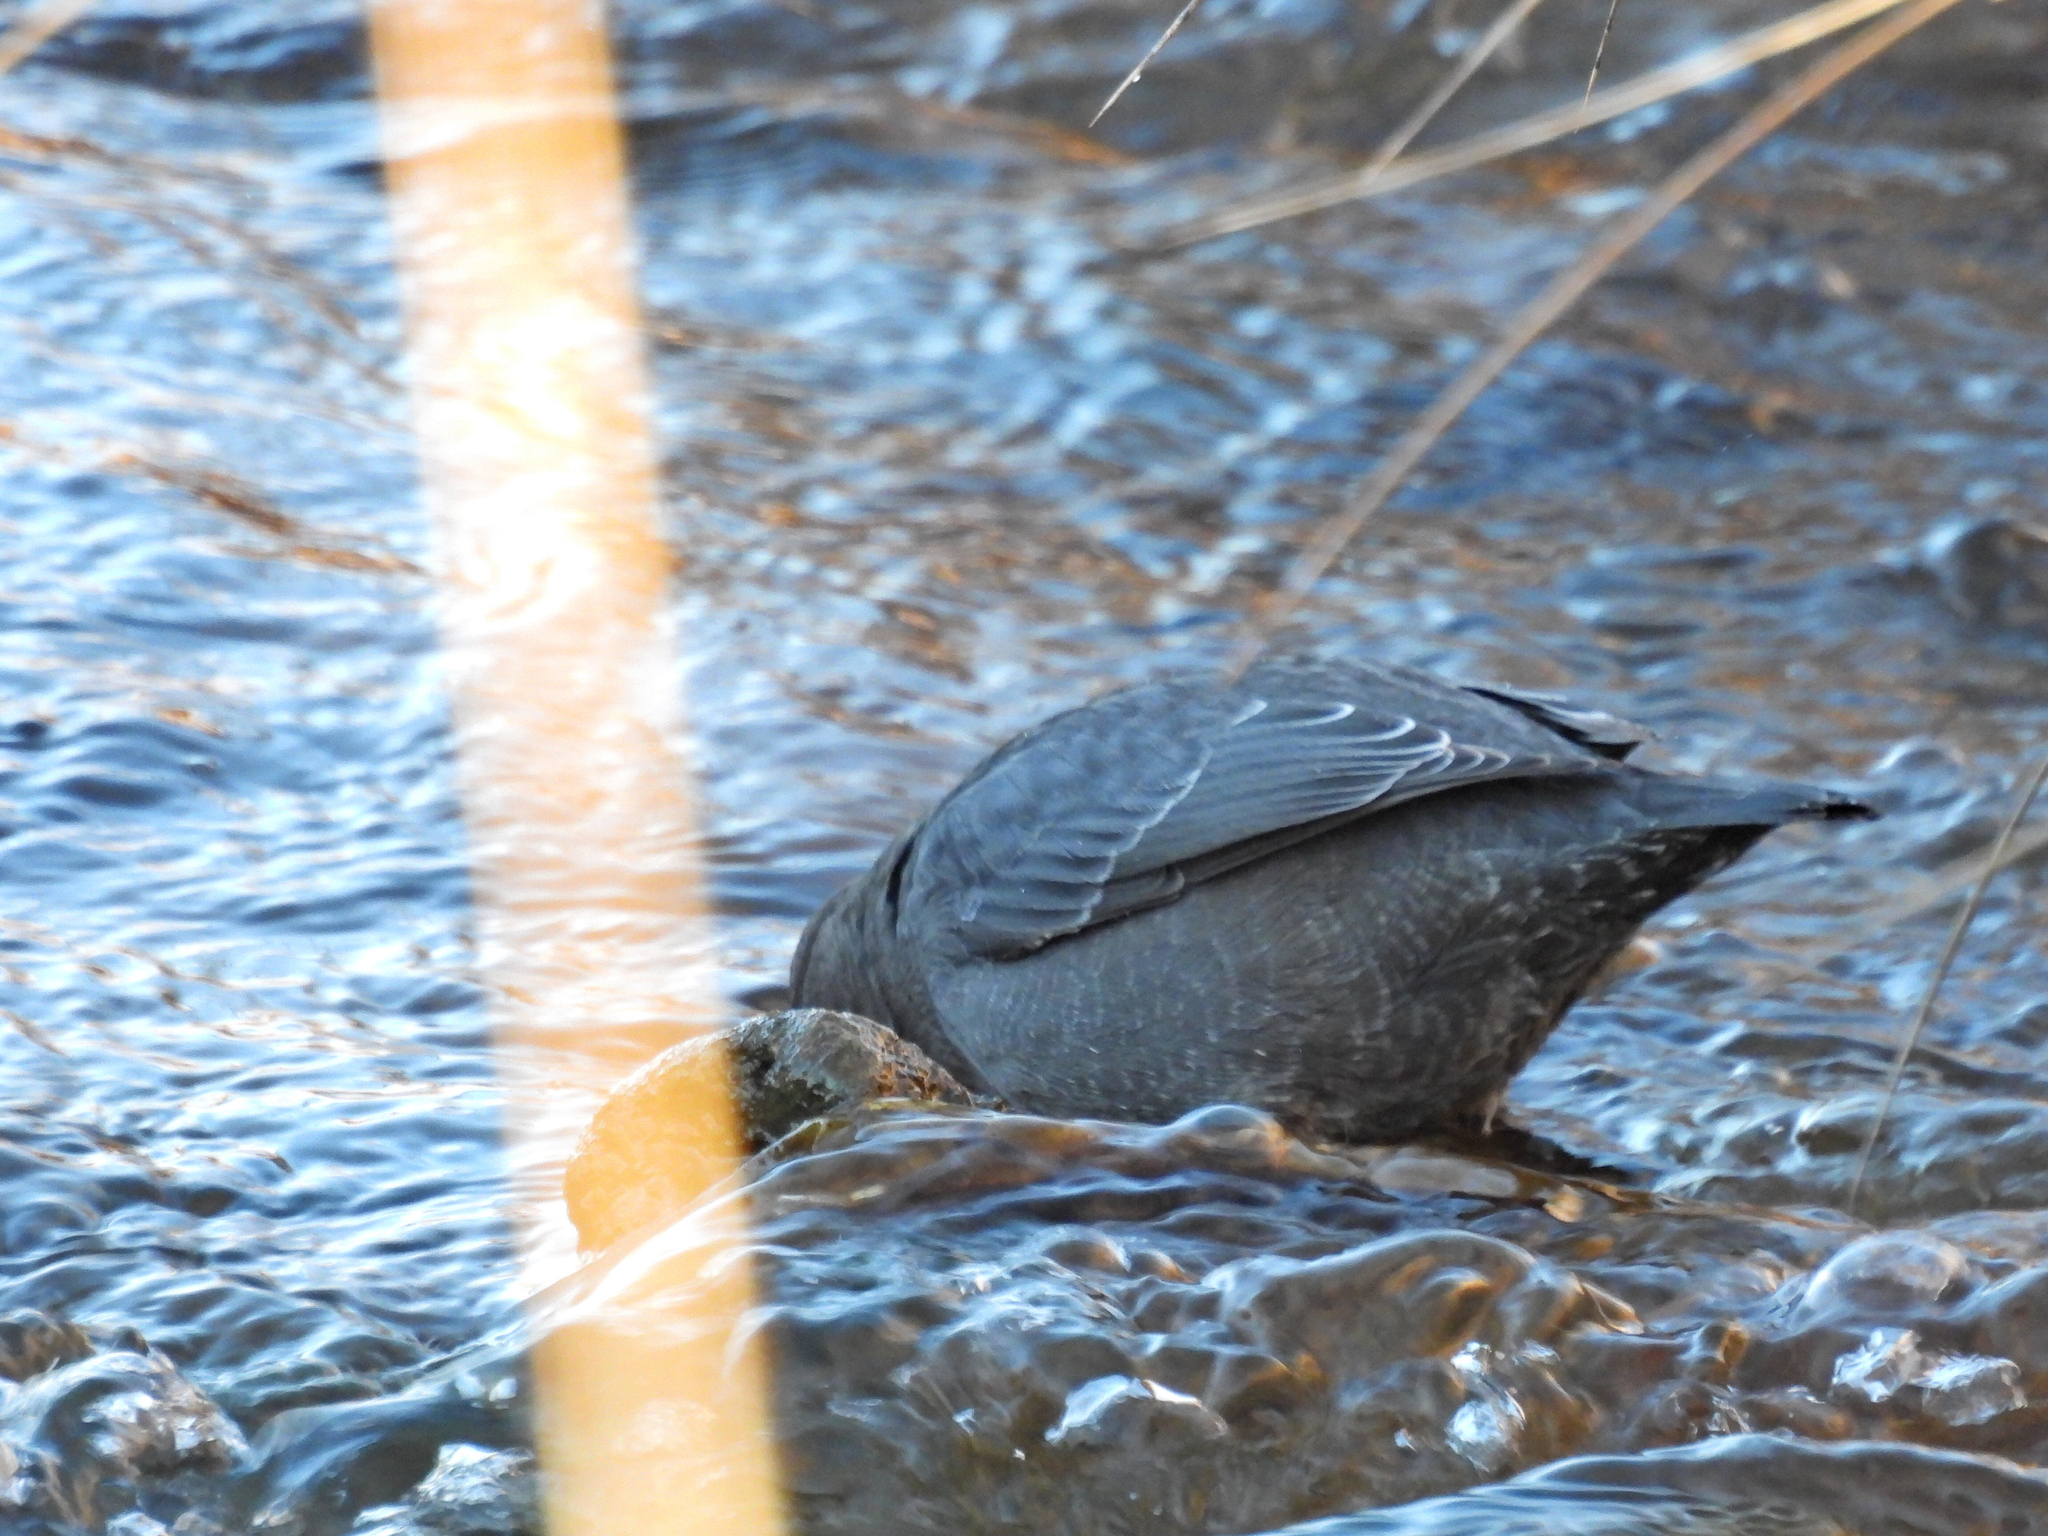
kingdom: Animalia
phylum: Chordata
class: Aves
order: Passeriformes
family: Cinclidae
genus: Cinclus
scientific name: Cinclus mexicanus
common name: American dipper
